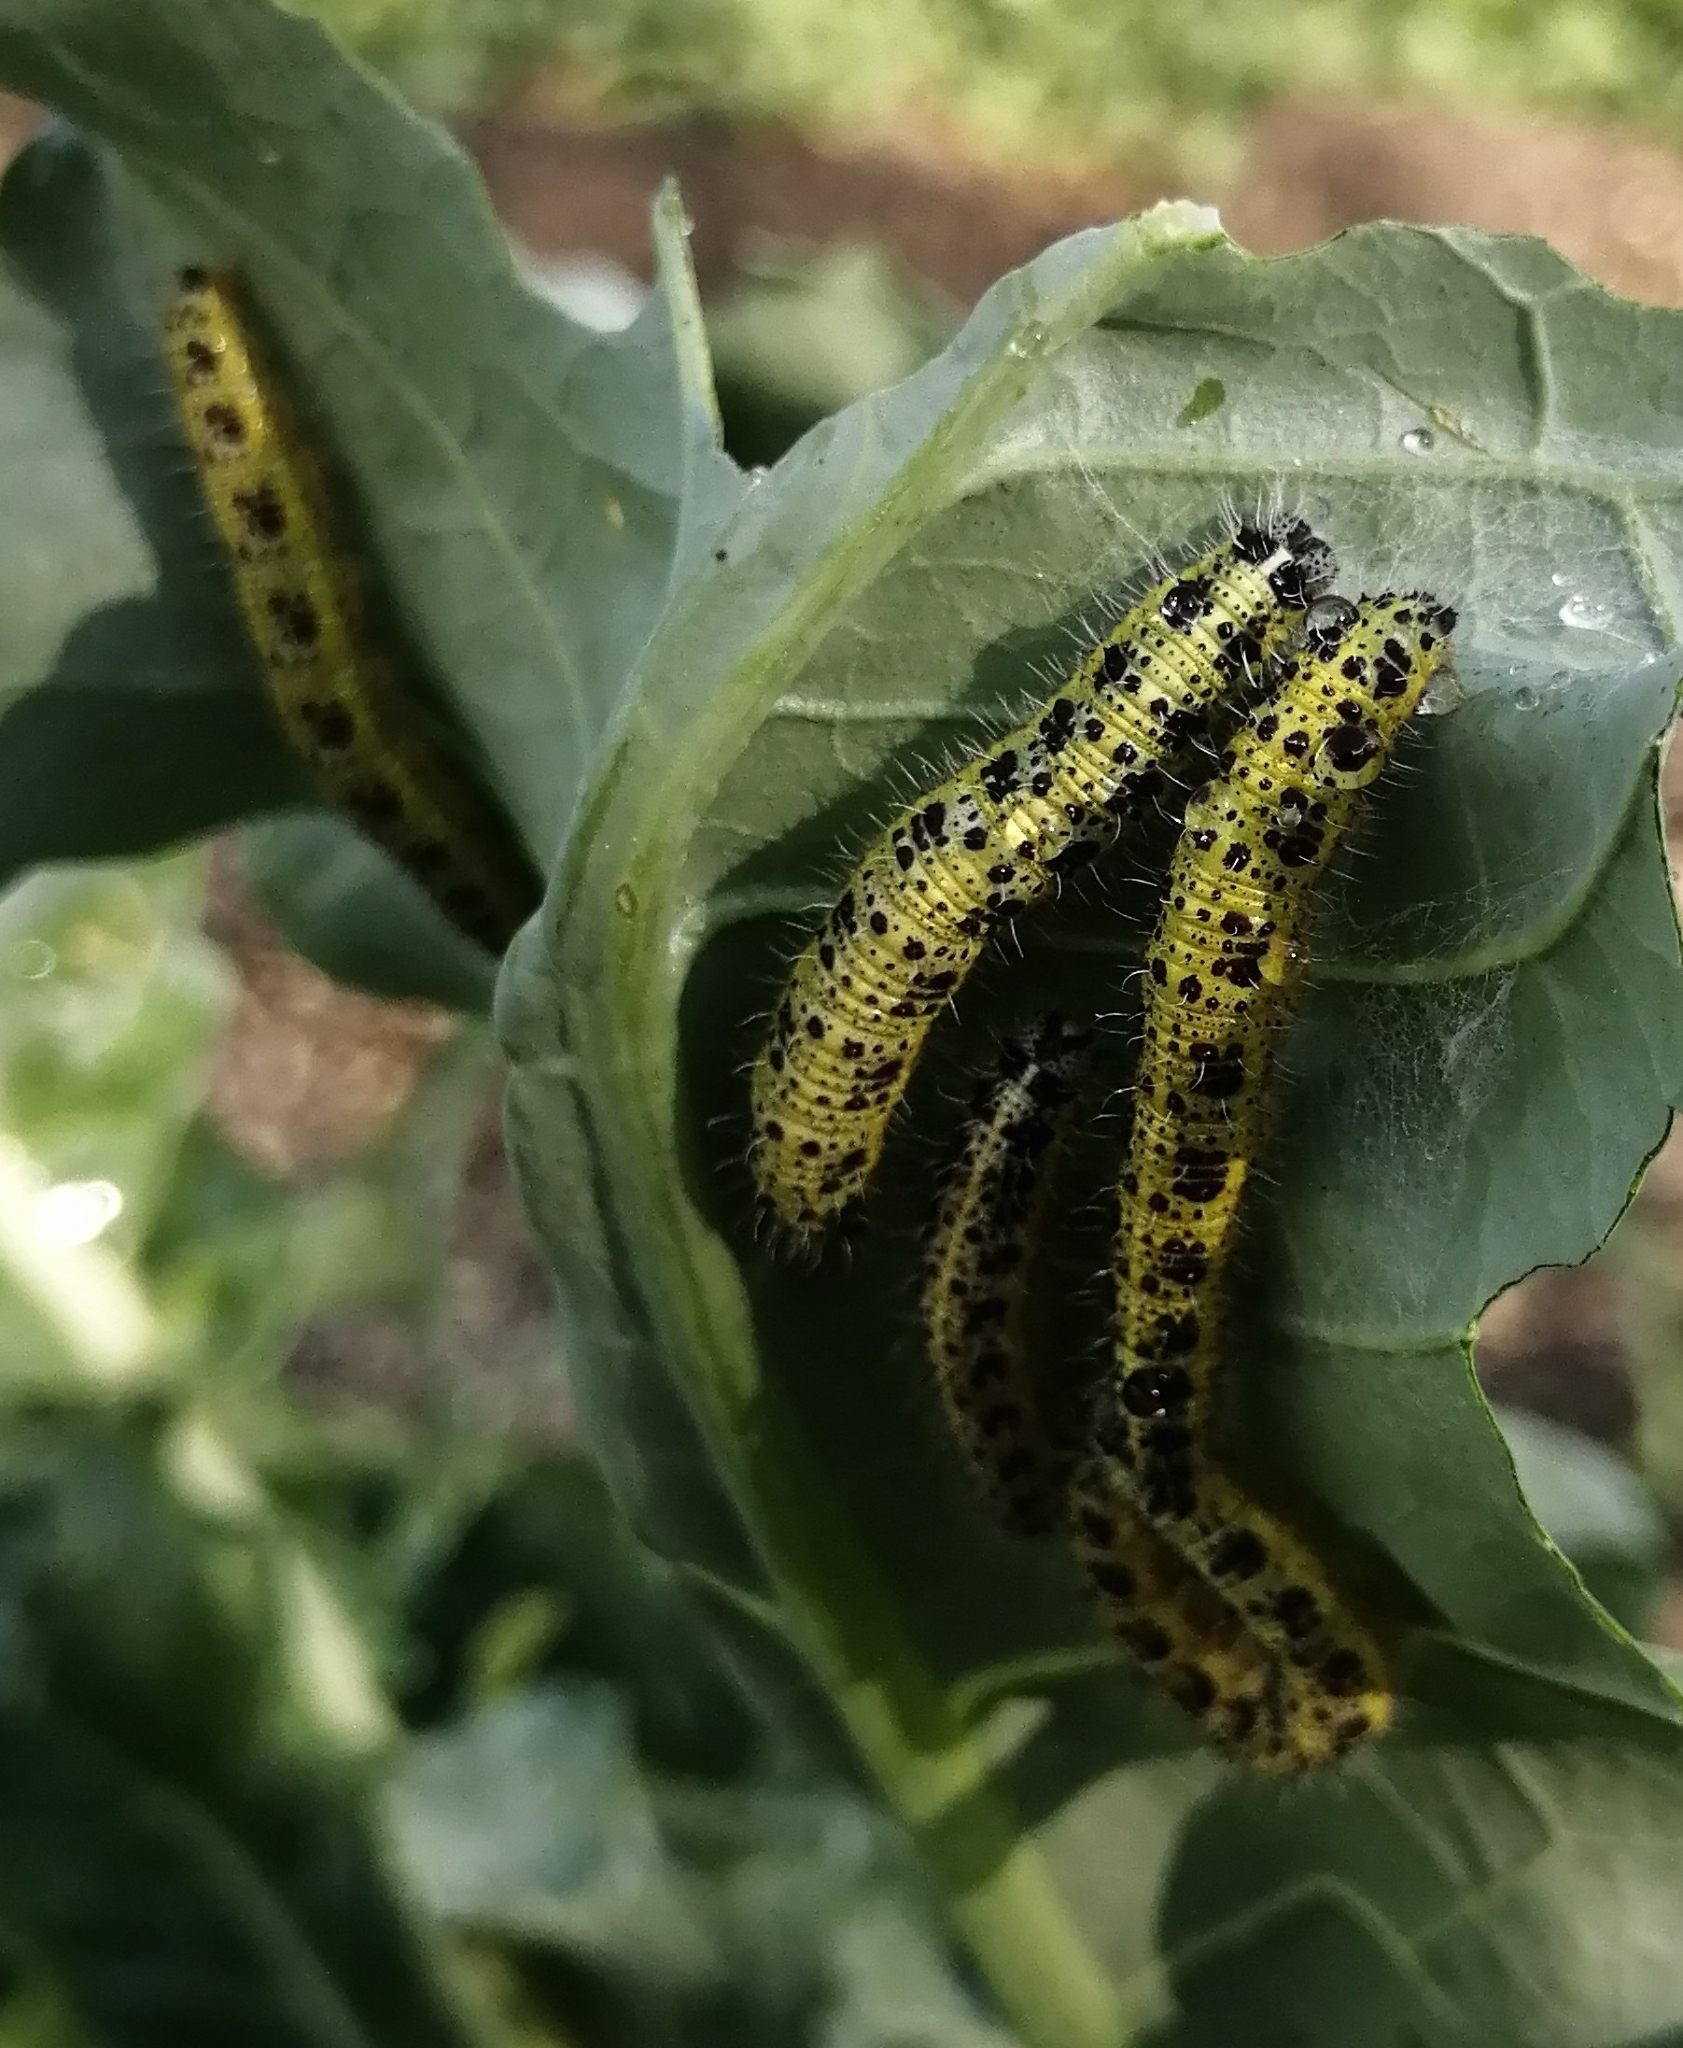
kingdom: Animalia
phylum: Arthropoda
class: Insecta
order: Lepidoptera
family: Pieridae
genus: Pieris
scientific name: Pieris brassicae
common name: Large white
